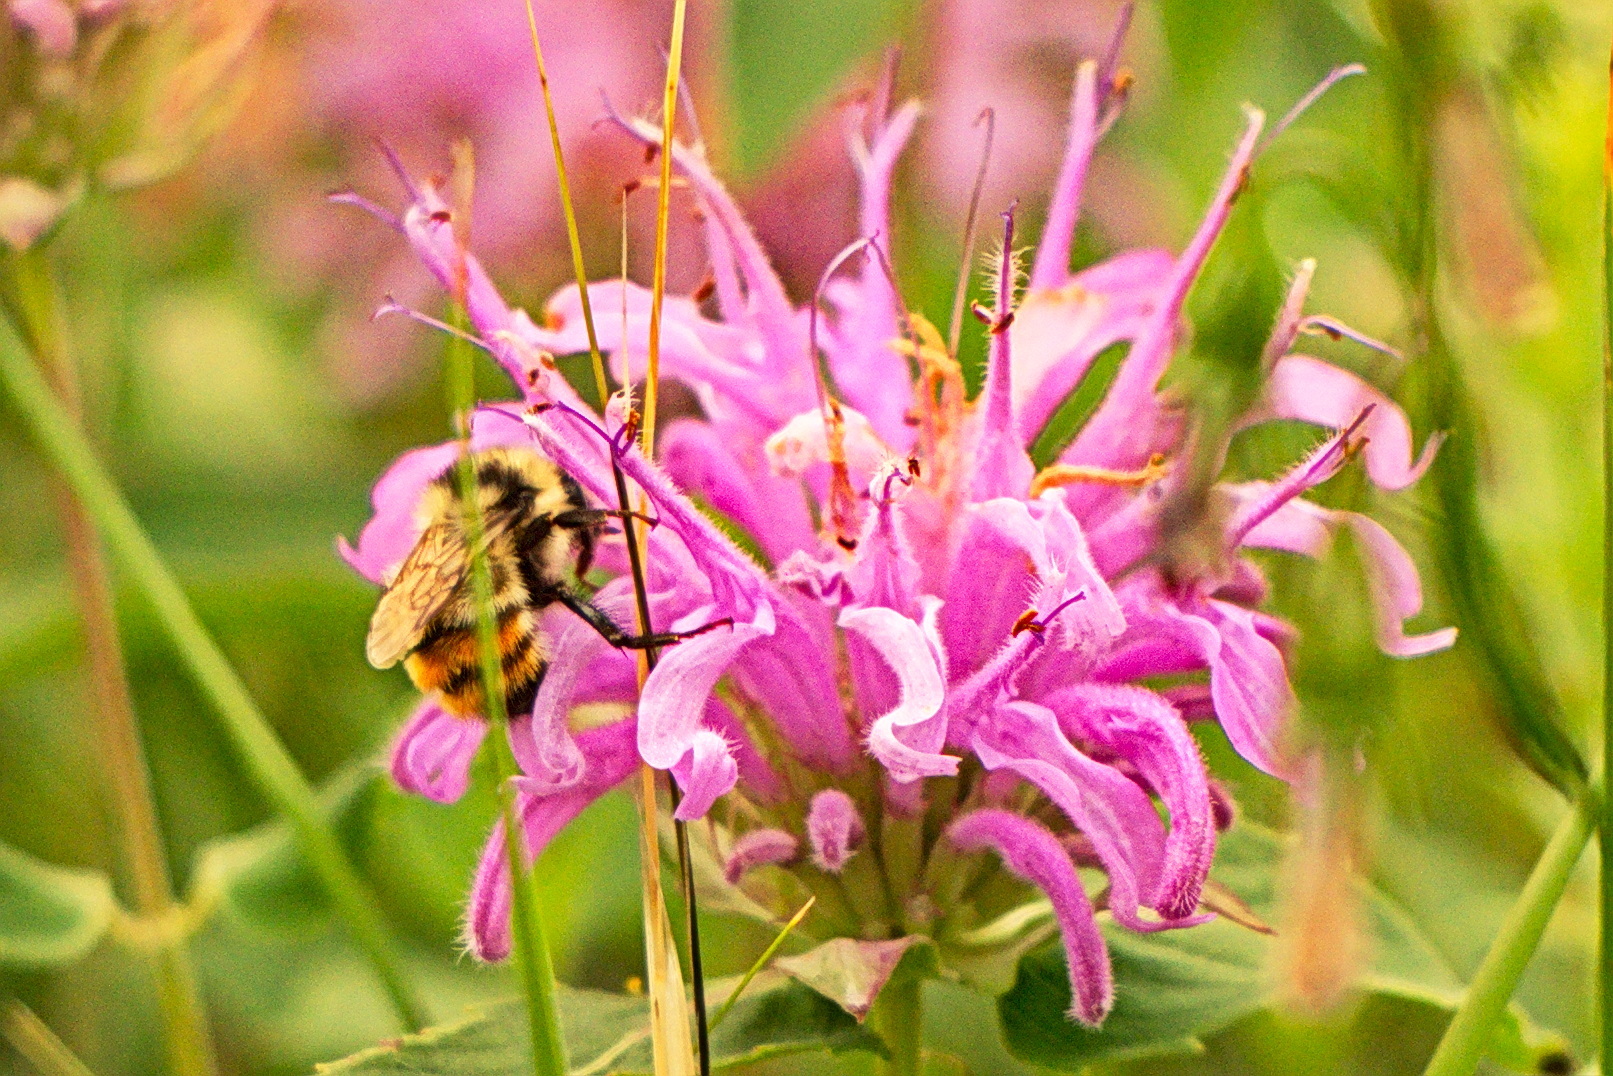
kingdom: Animalia
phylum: Arthropoda
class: Insecta
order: Hymenoptera
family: Apidae
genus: Bombus
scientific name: Bombus centralis
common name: Central bumble bee
